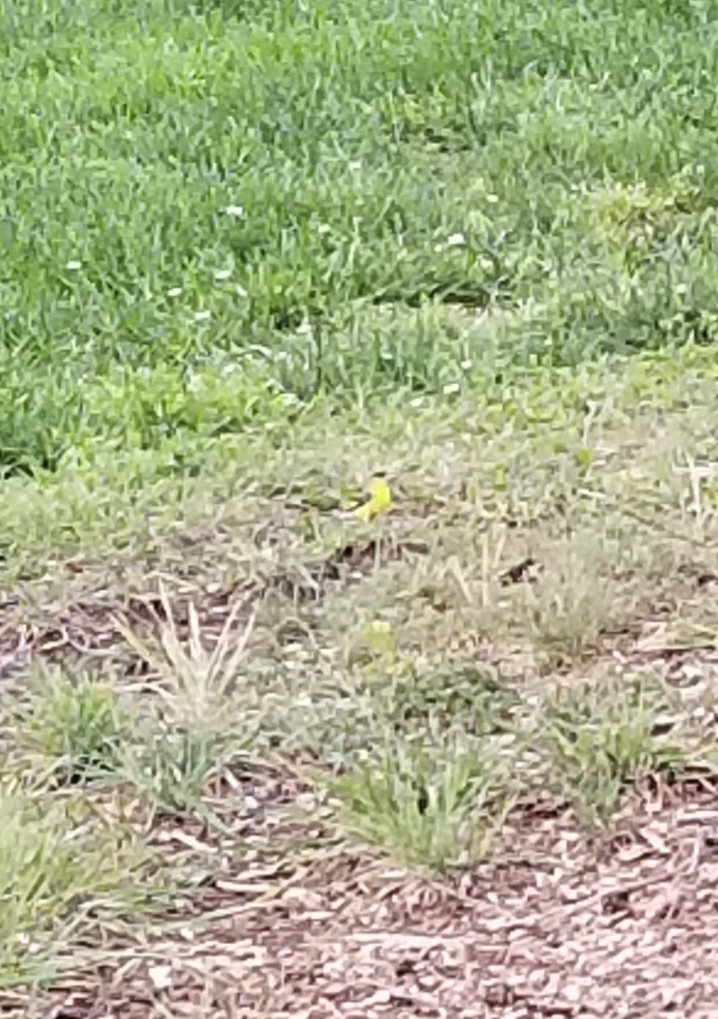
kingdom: Animalia
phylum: Chordata
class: Aves
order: Passeriformes
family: Fringillidae
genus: Spinus
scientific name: Spinus psaltria
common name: Lesser goldfinch
